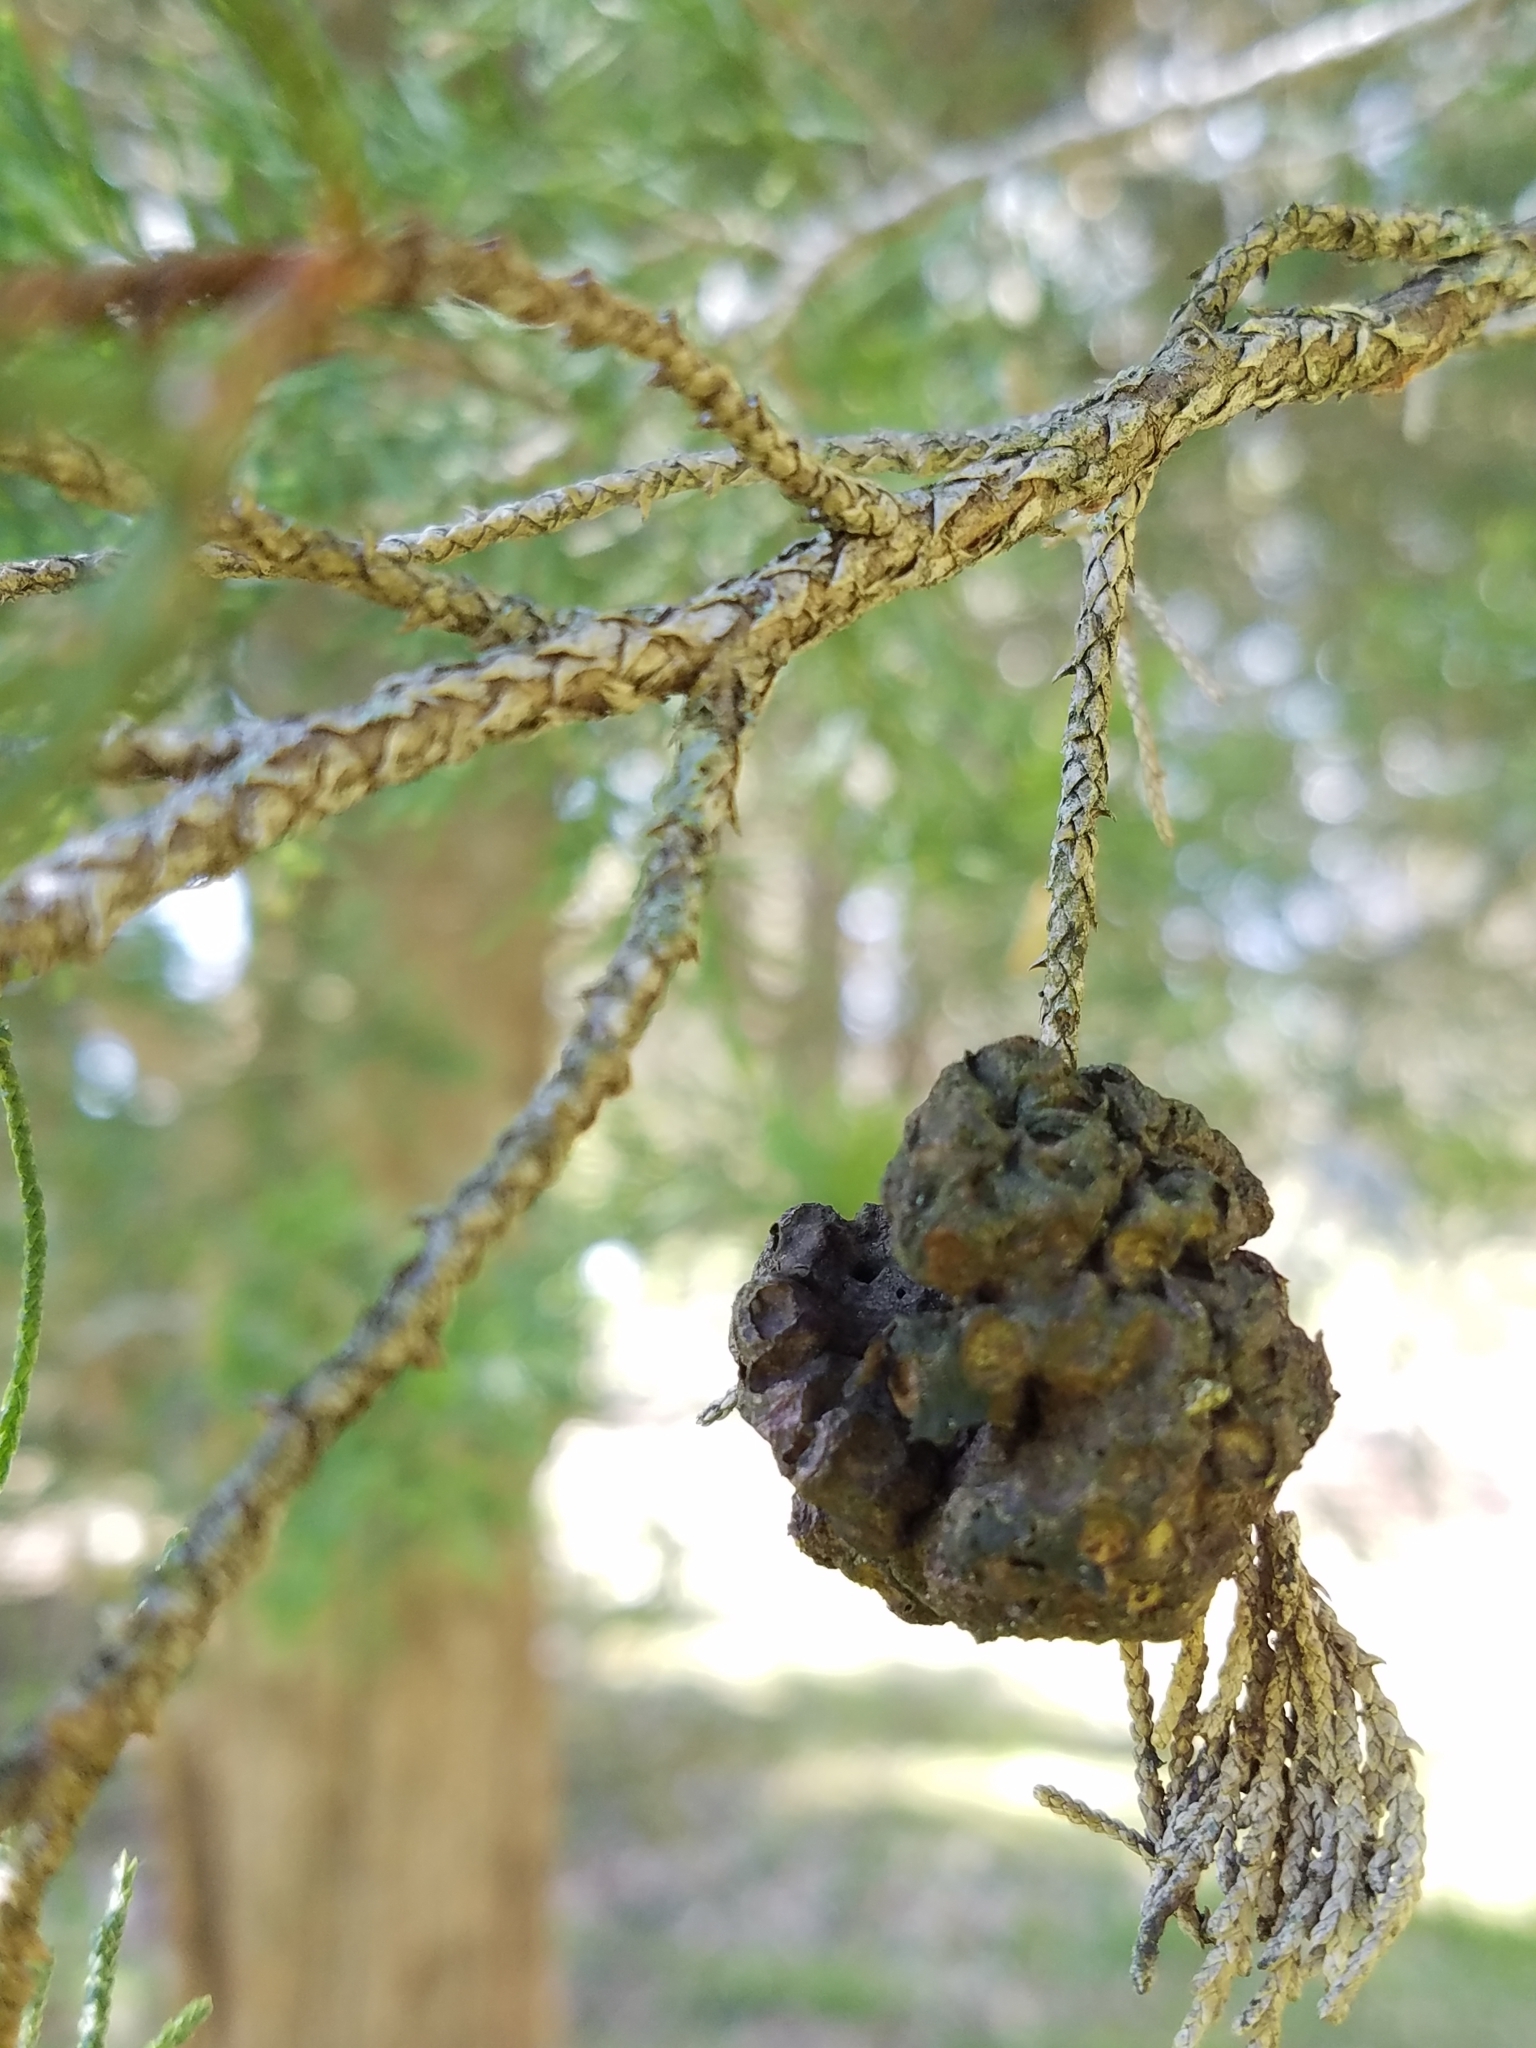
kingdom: Fungi
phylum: Basidiomycota
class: Pucciniomycetes
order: Pucciniales
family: Gymnosporangiaceae
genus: Gymnosporangium
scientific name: Gymnosporangium juniperi-virginianae
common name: Juniper-apple rust
